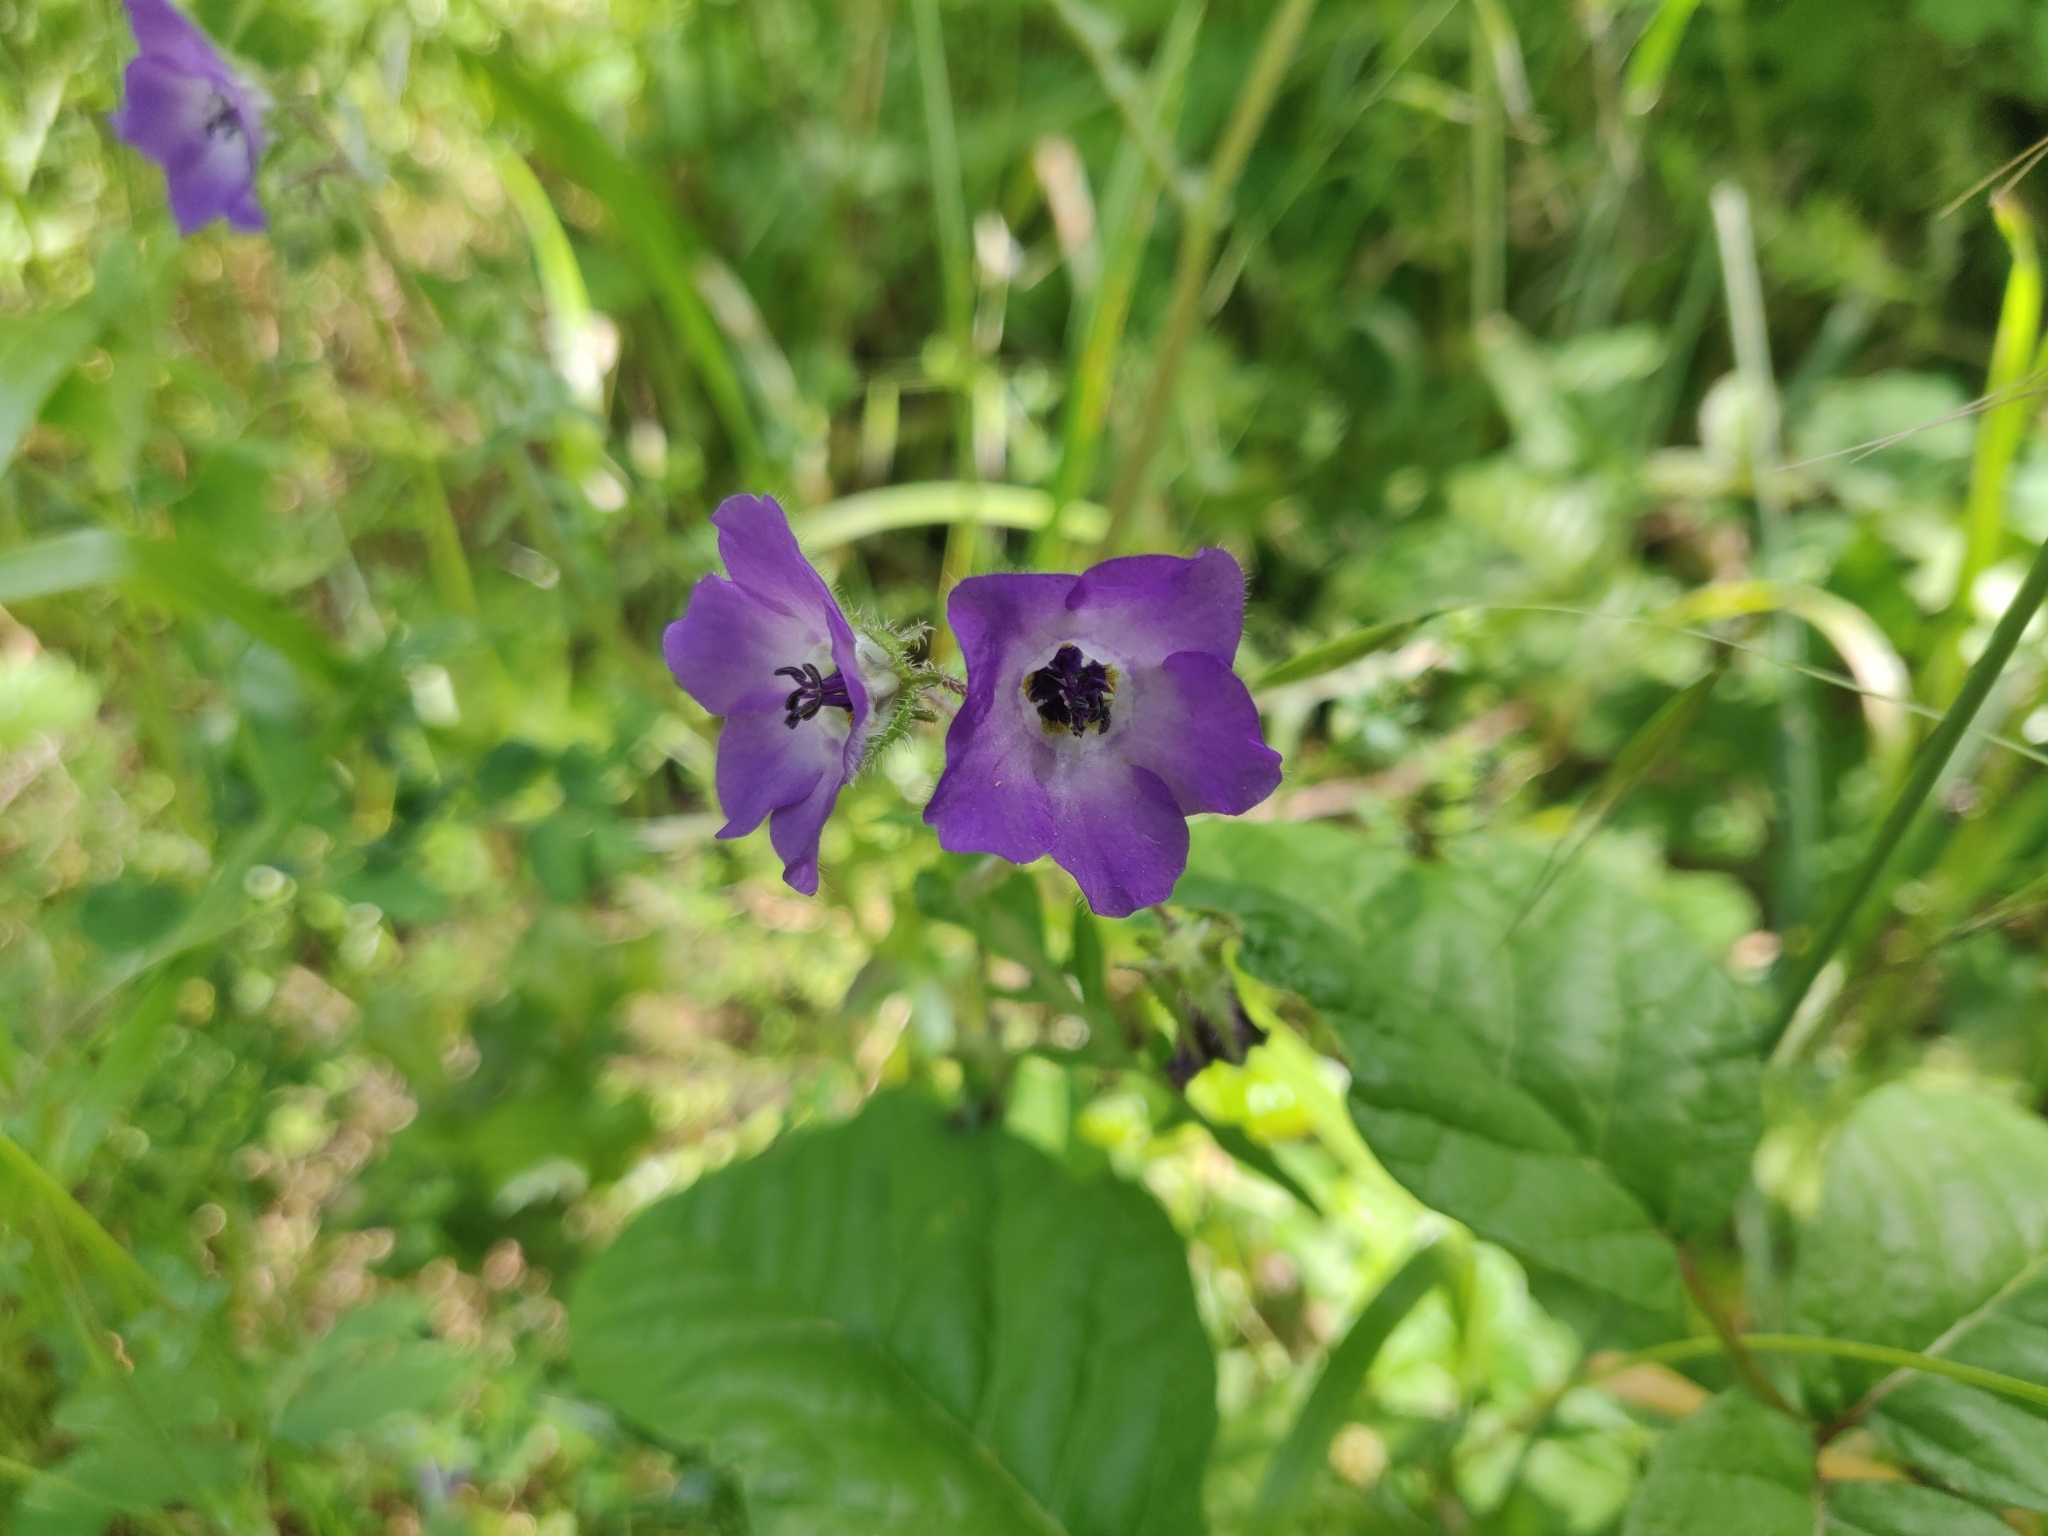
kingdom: Plantae
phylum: Tracheophyta
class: Magnoliopsida
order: Boraginales
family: Hydrophyllaceae
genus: Pholistoma
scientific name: Pholistoma auritum
